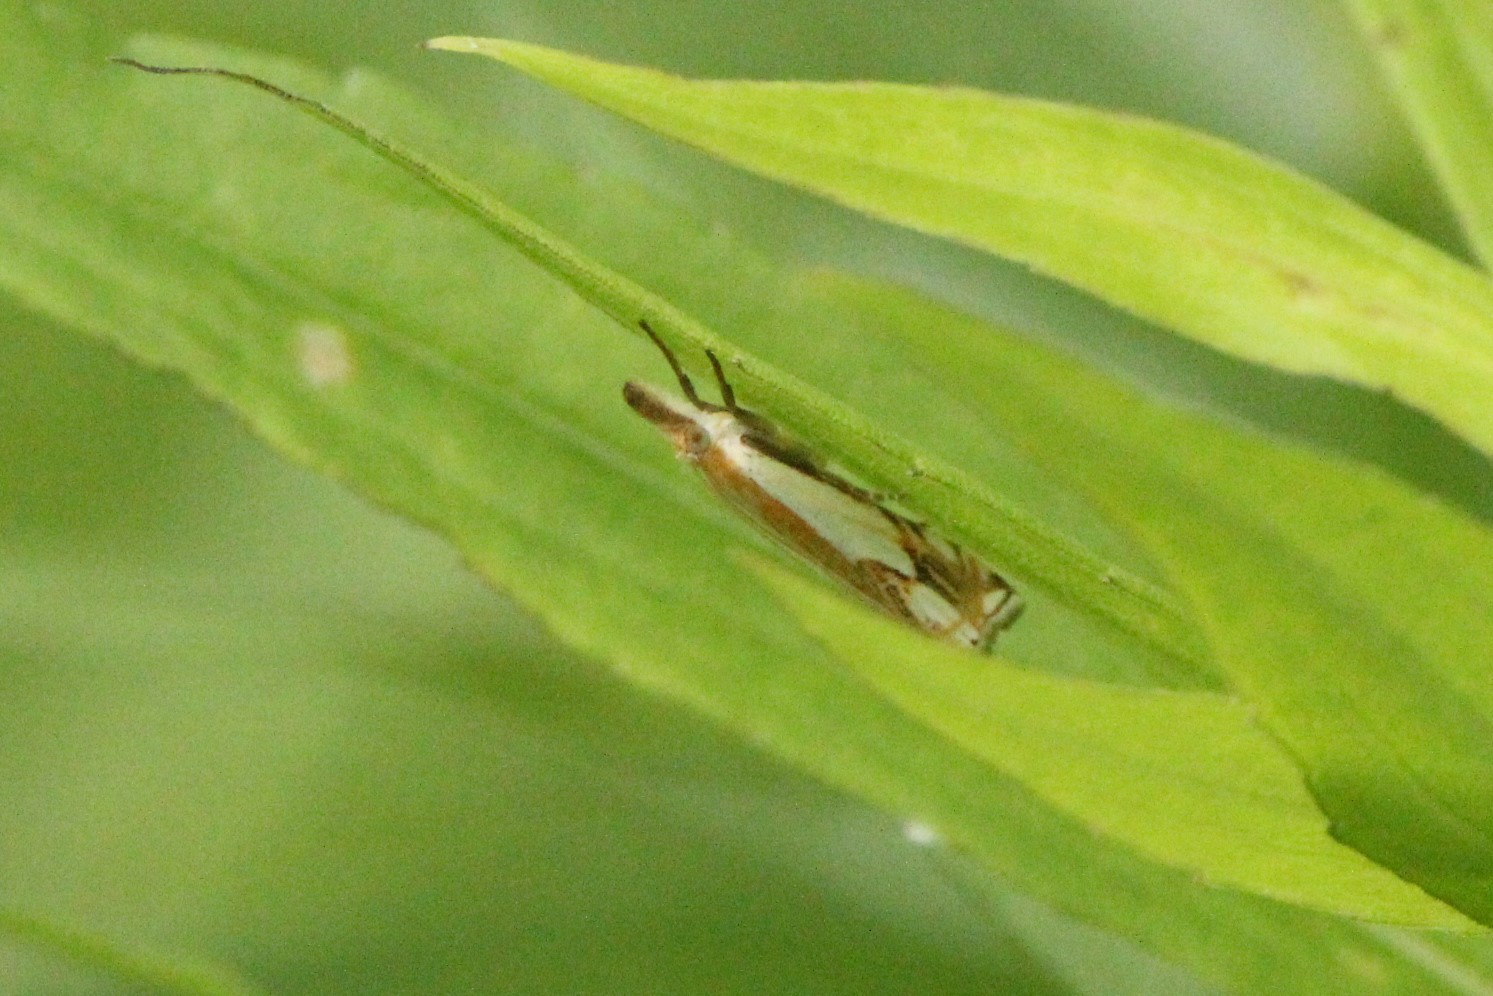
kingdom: Animalia
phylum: Arthropoda
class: Insecta
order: Lepidoptera
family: Crambidae
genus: Crambus
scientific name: Crambus agitatellus
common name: Double-banded grass-veneer
